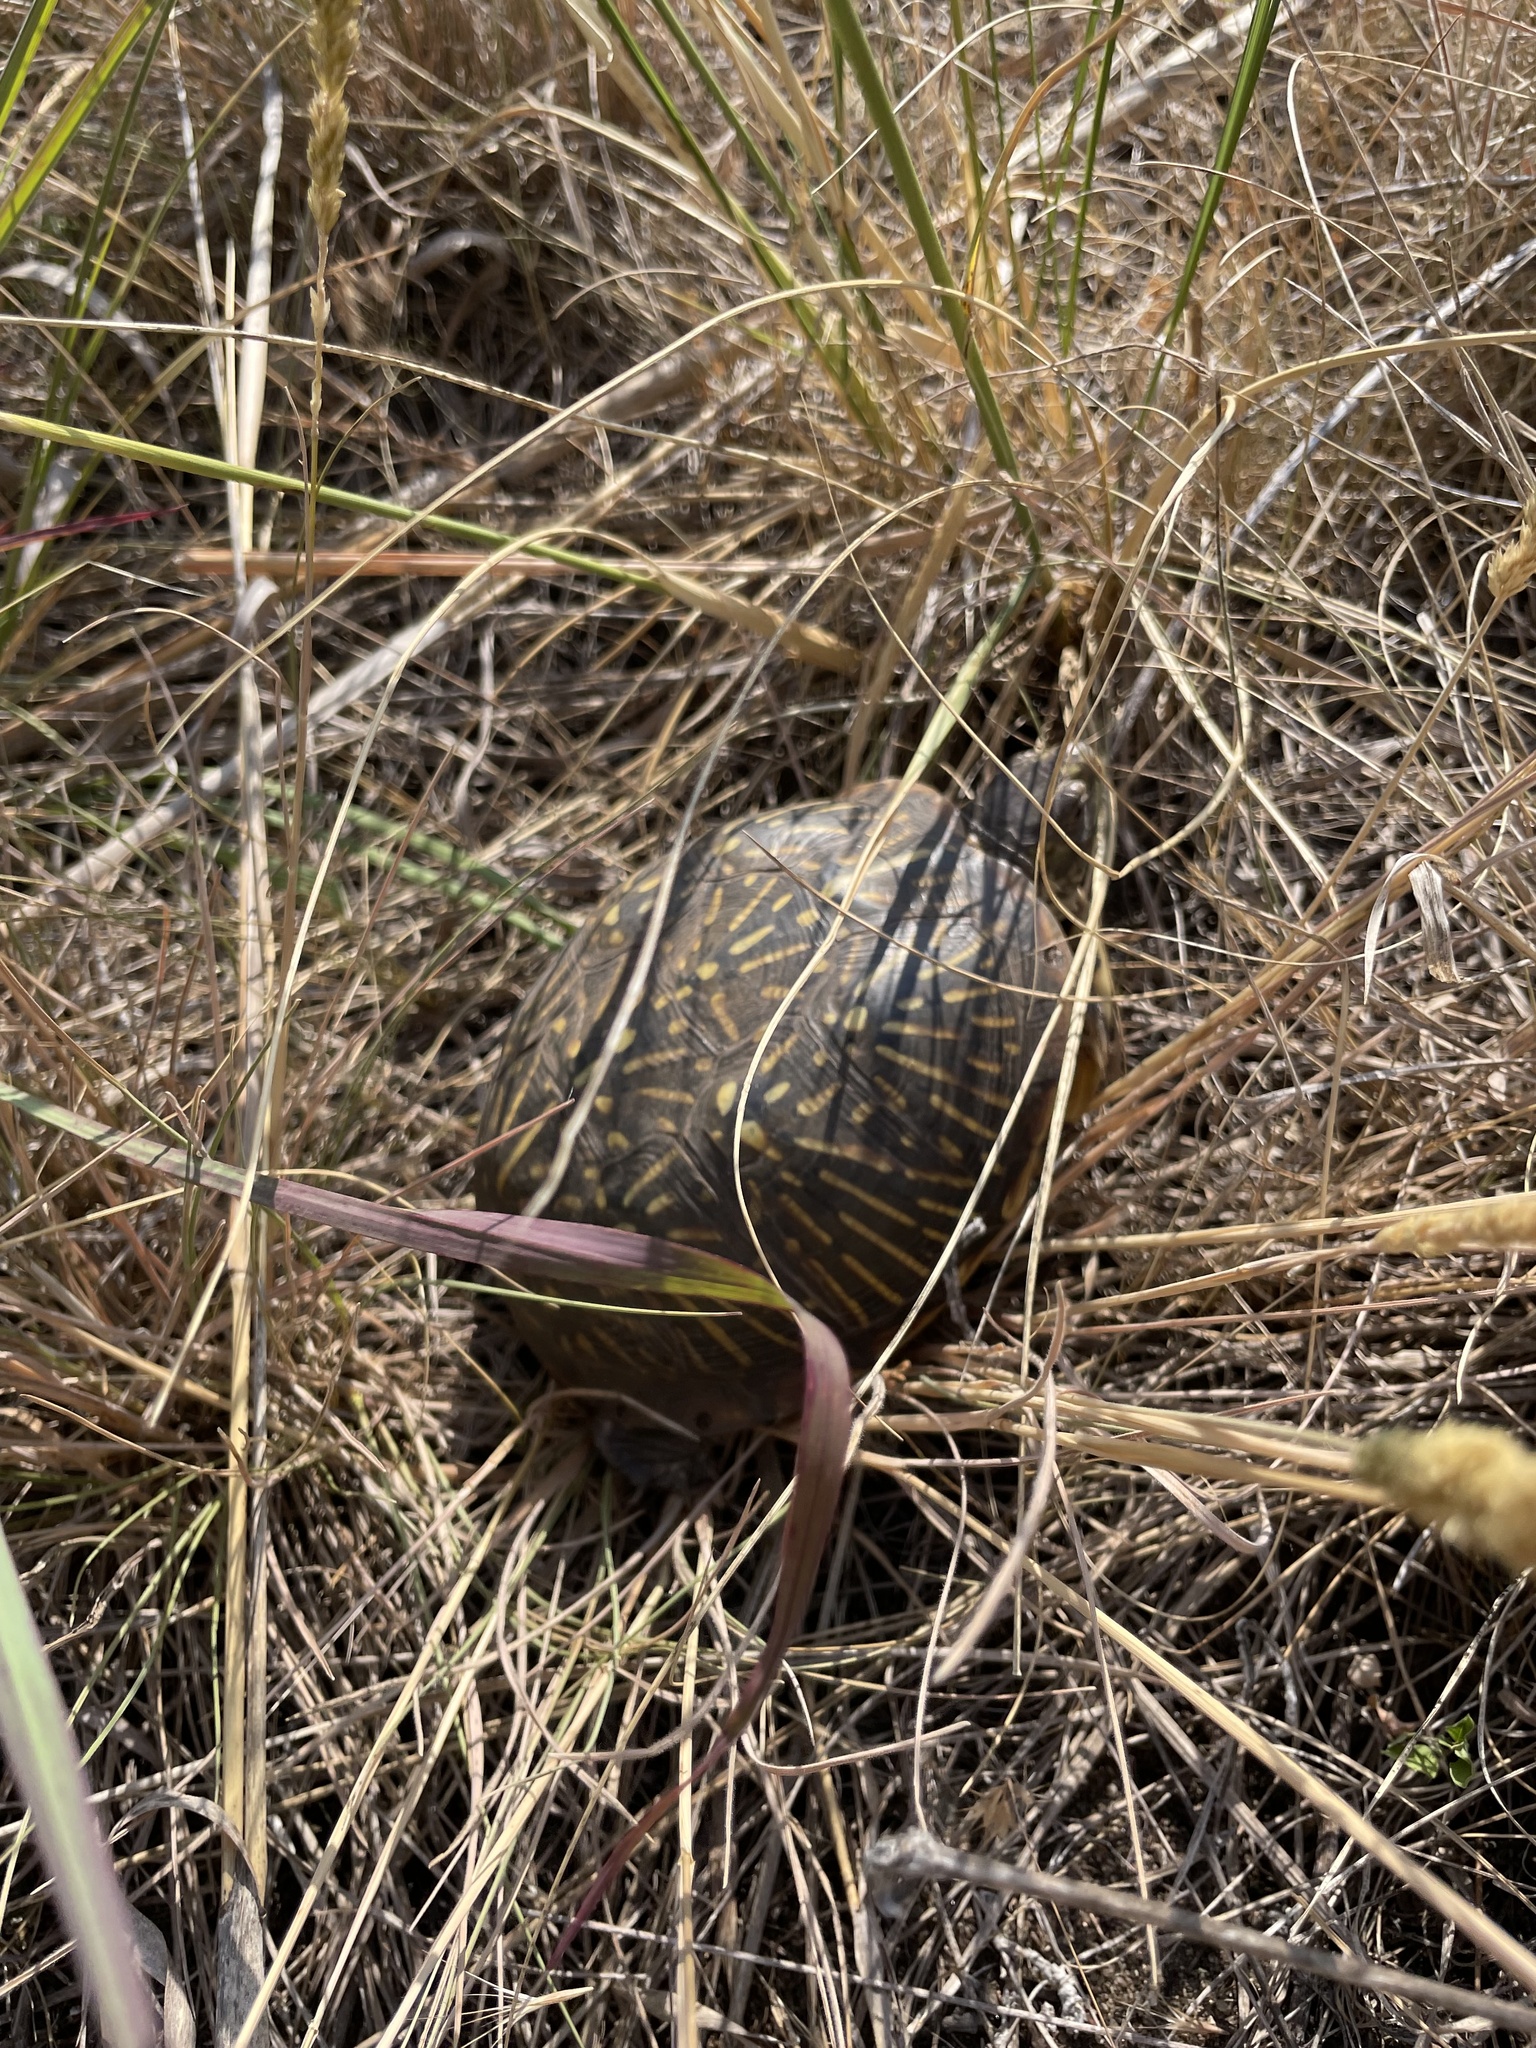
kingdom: Animalia
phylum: Chordata
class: Testudines
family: Emydidae
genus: Terrapene
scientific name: Terrapene ornata
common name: Western box turtle
